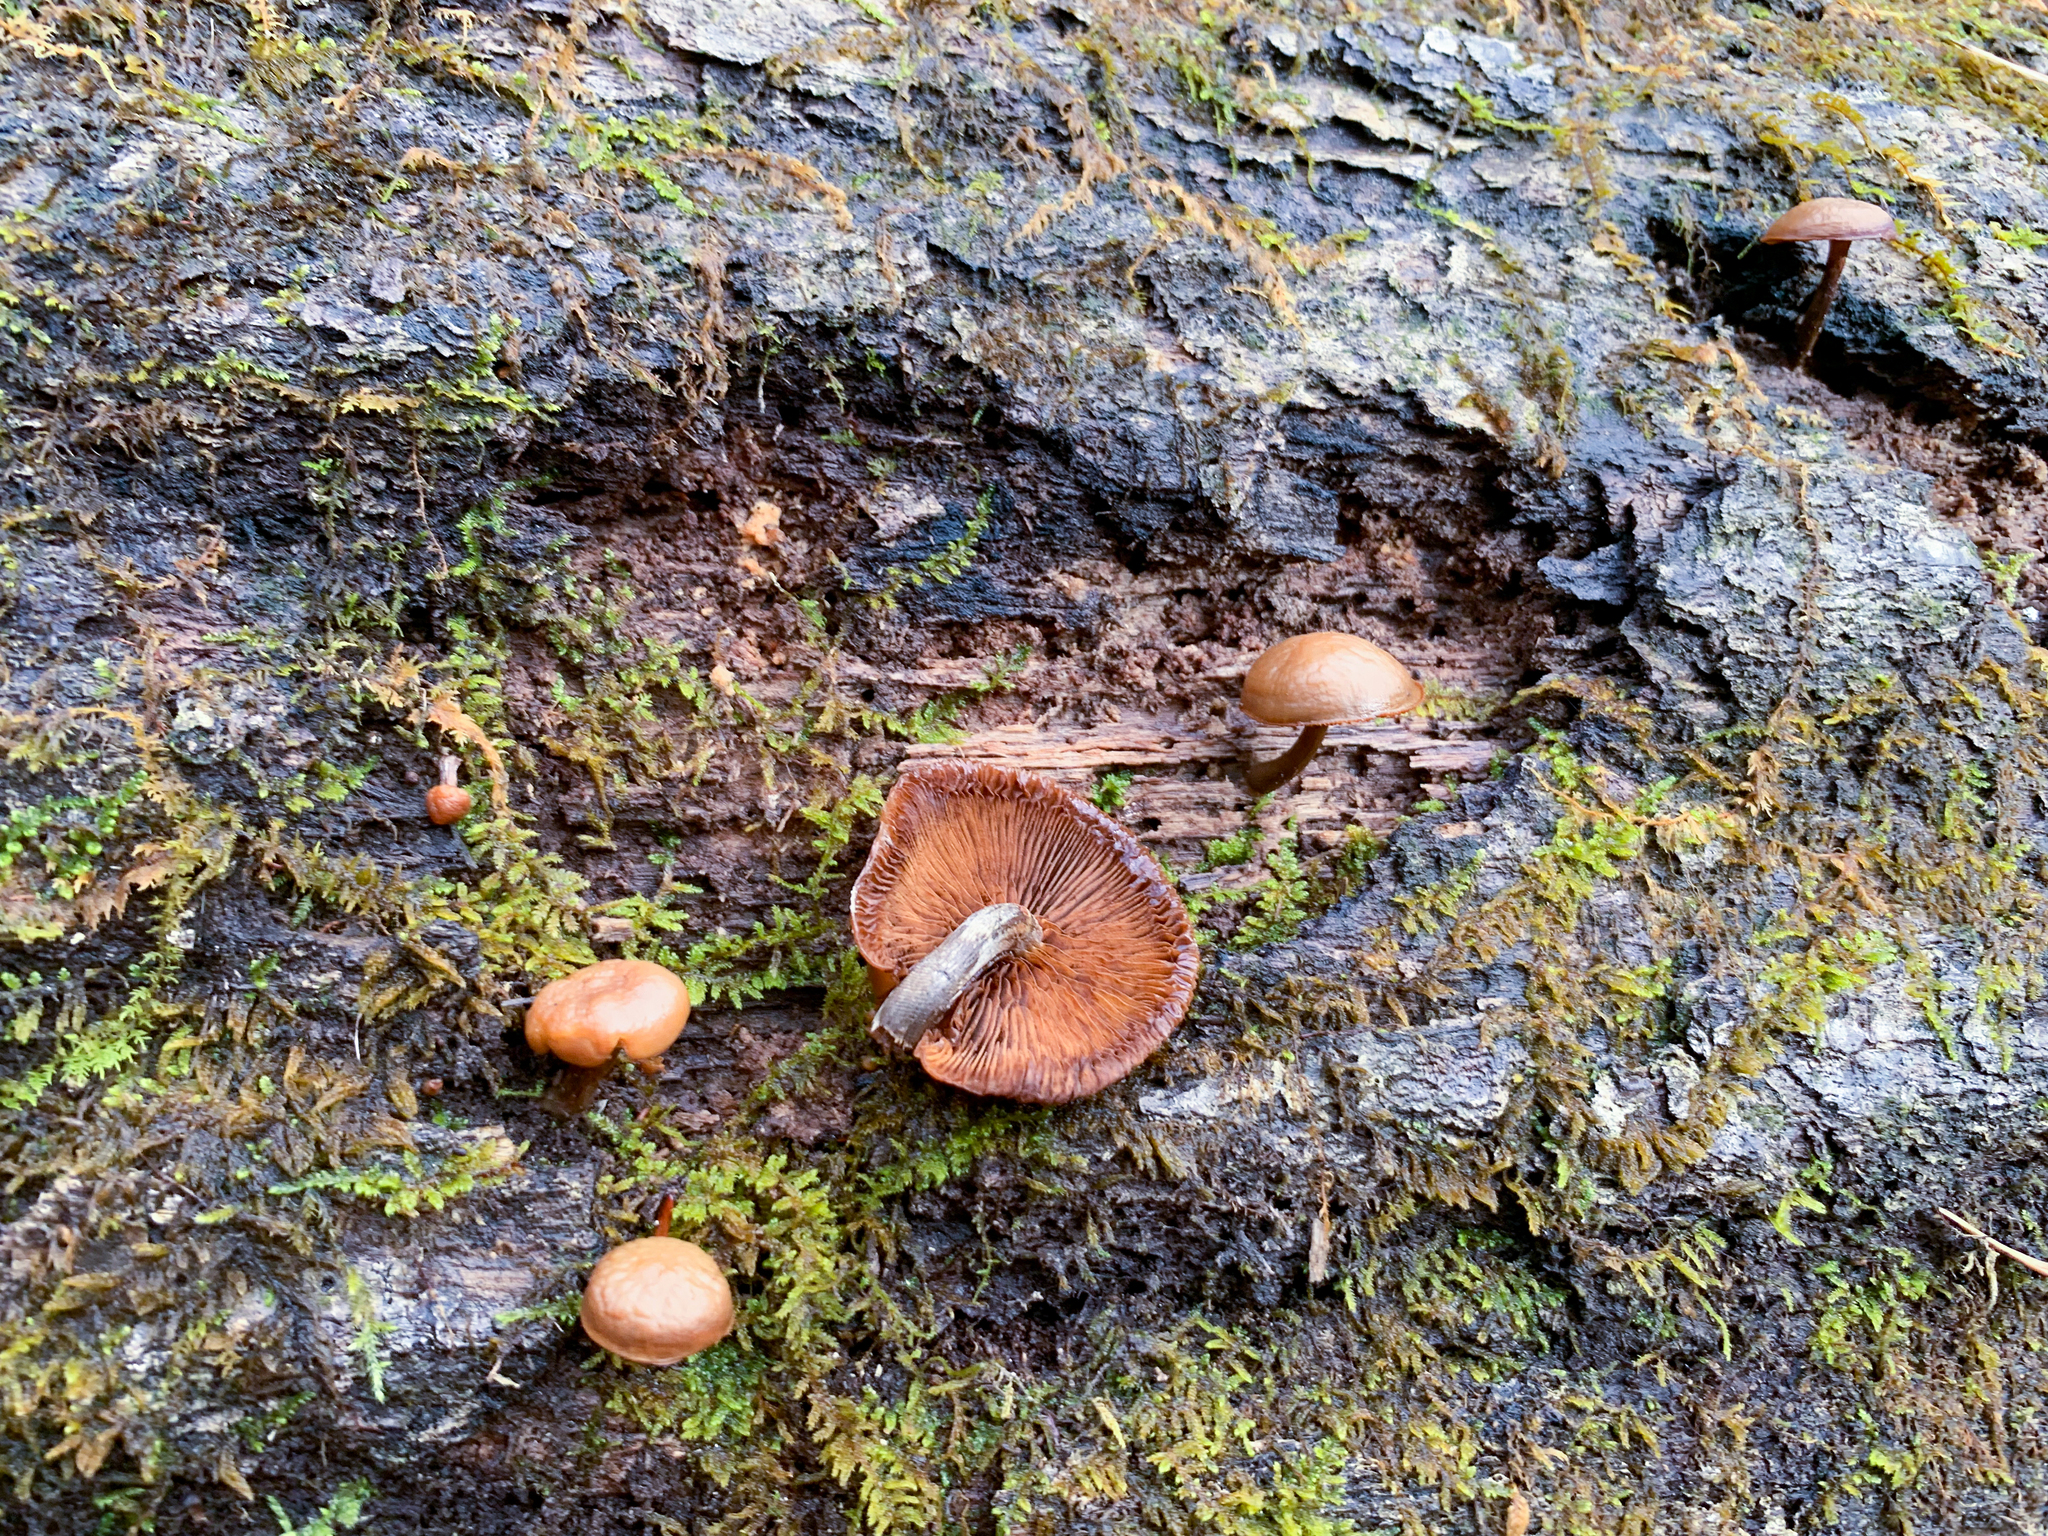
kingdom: Fungi
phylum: Basidiomycota
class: Agaricomycetes
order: Agaricales
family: Hymenogastraceae
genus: Galerina
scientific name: Galerina marginata
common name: Funeral bell
